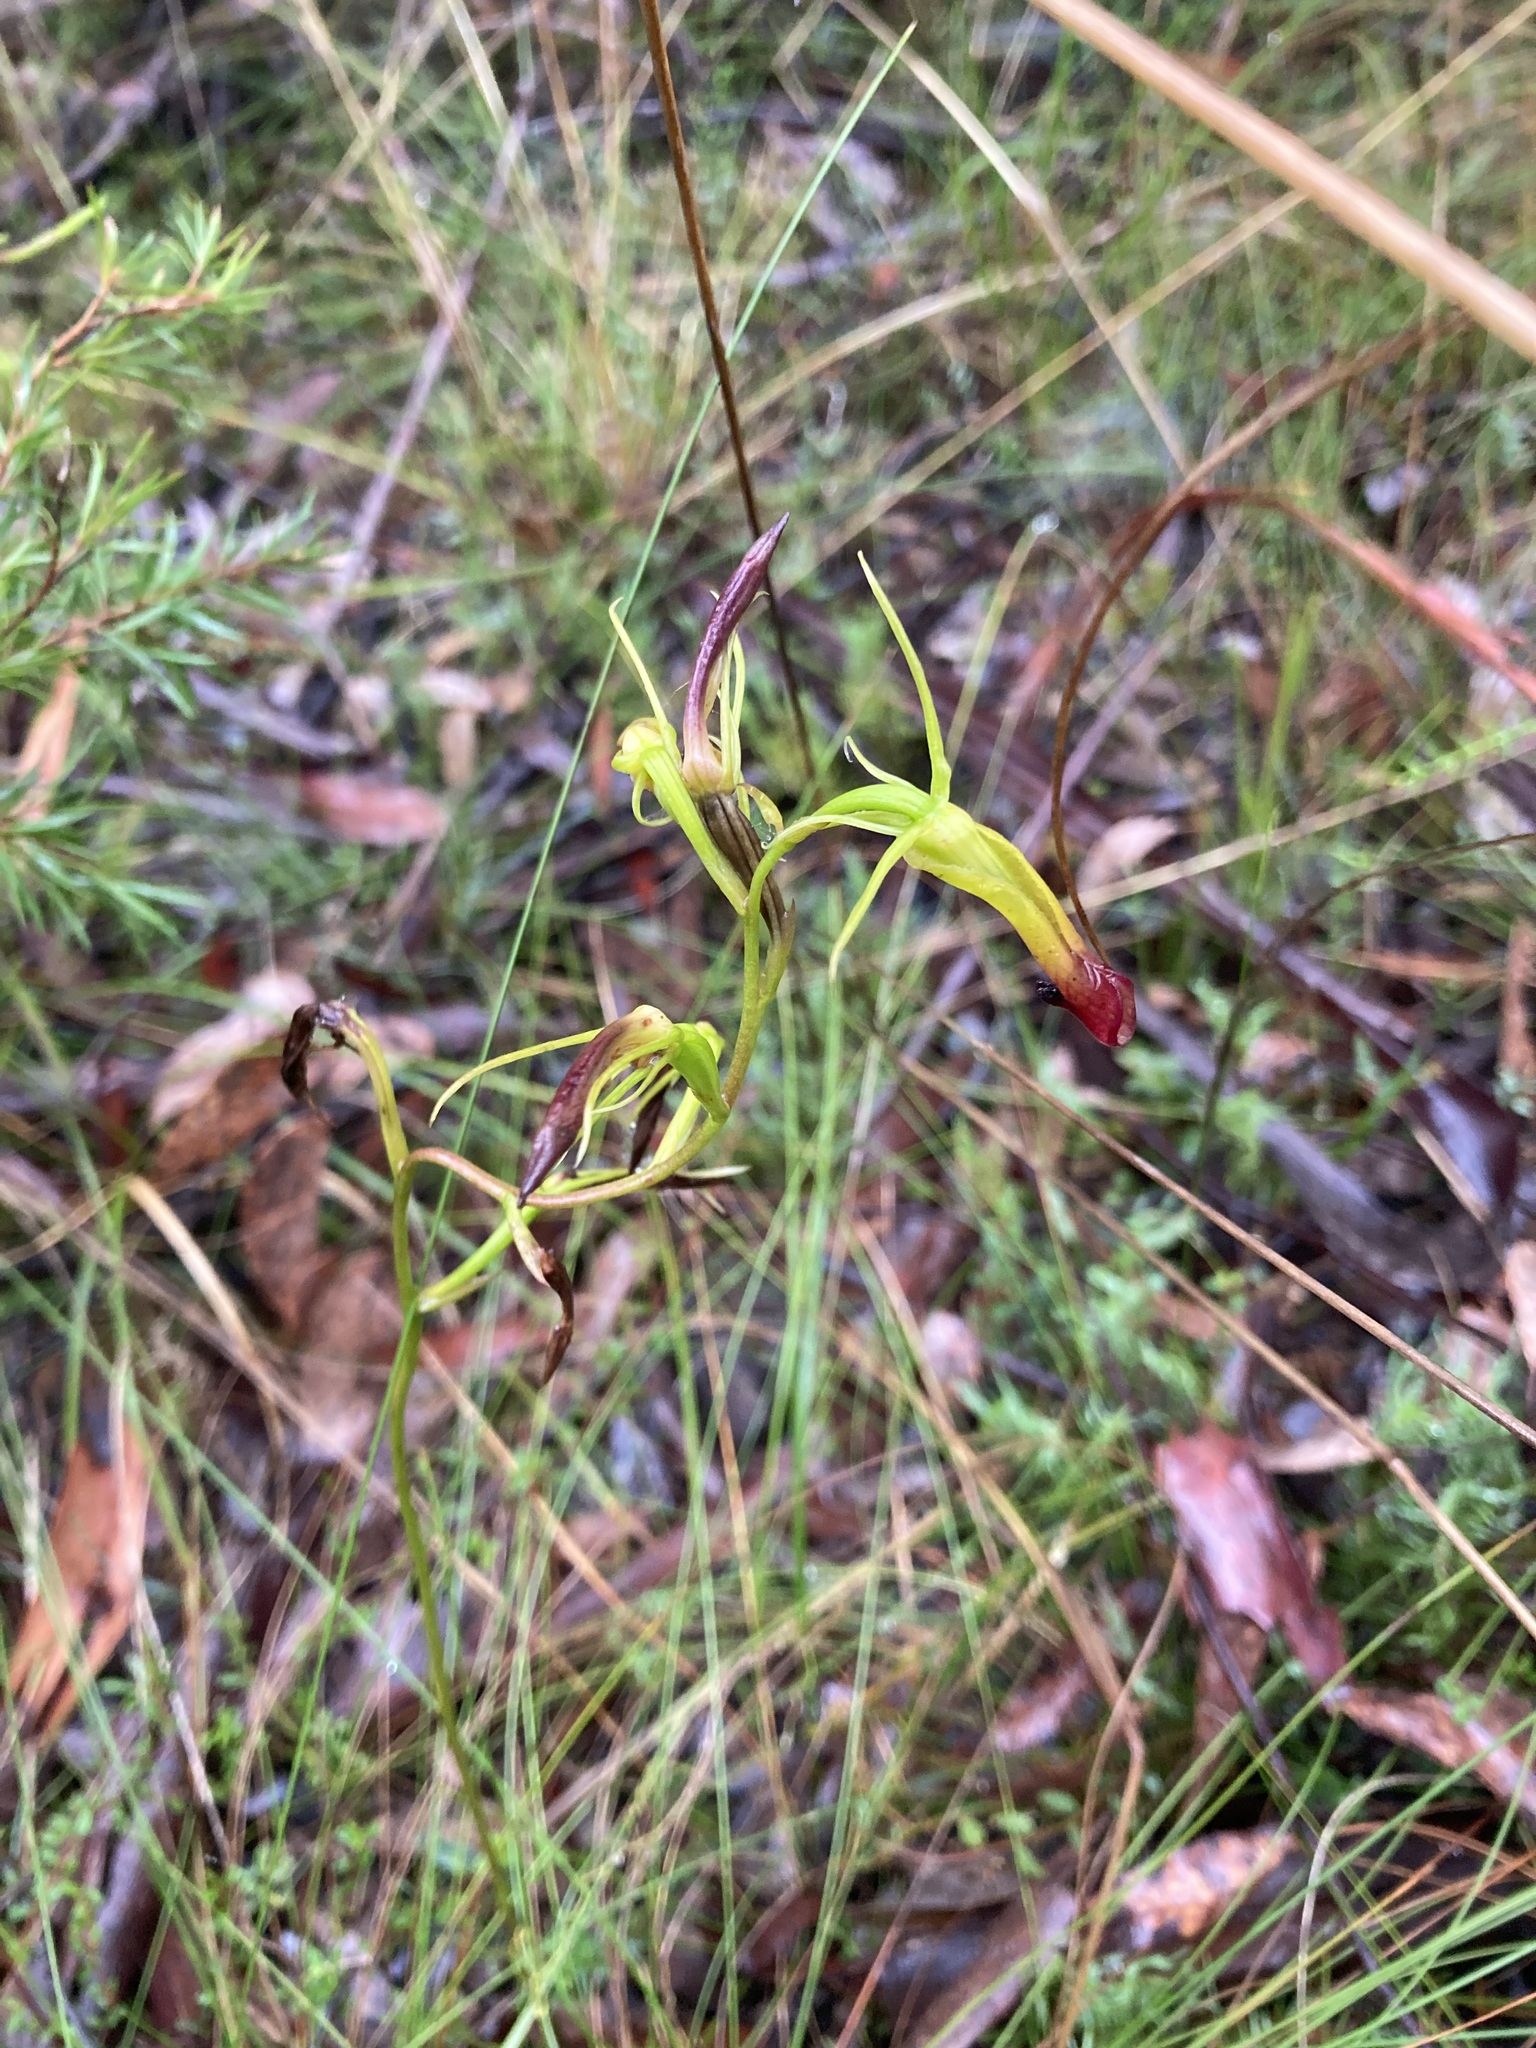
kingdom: Plantae
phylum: Tracheophyta
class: Liliopsida
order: Asparagales
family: Orchidaceae
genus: Cryptostylis
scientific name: Cryptostylis subulata
